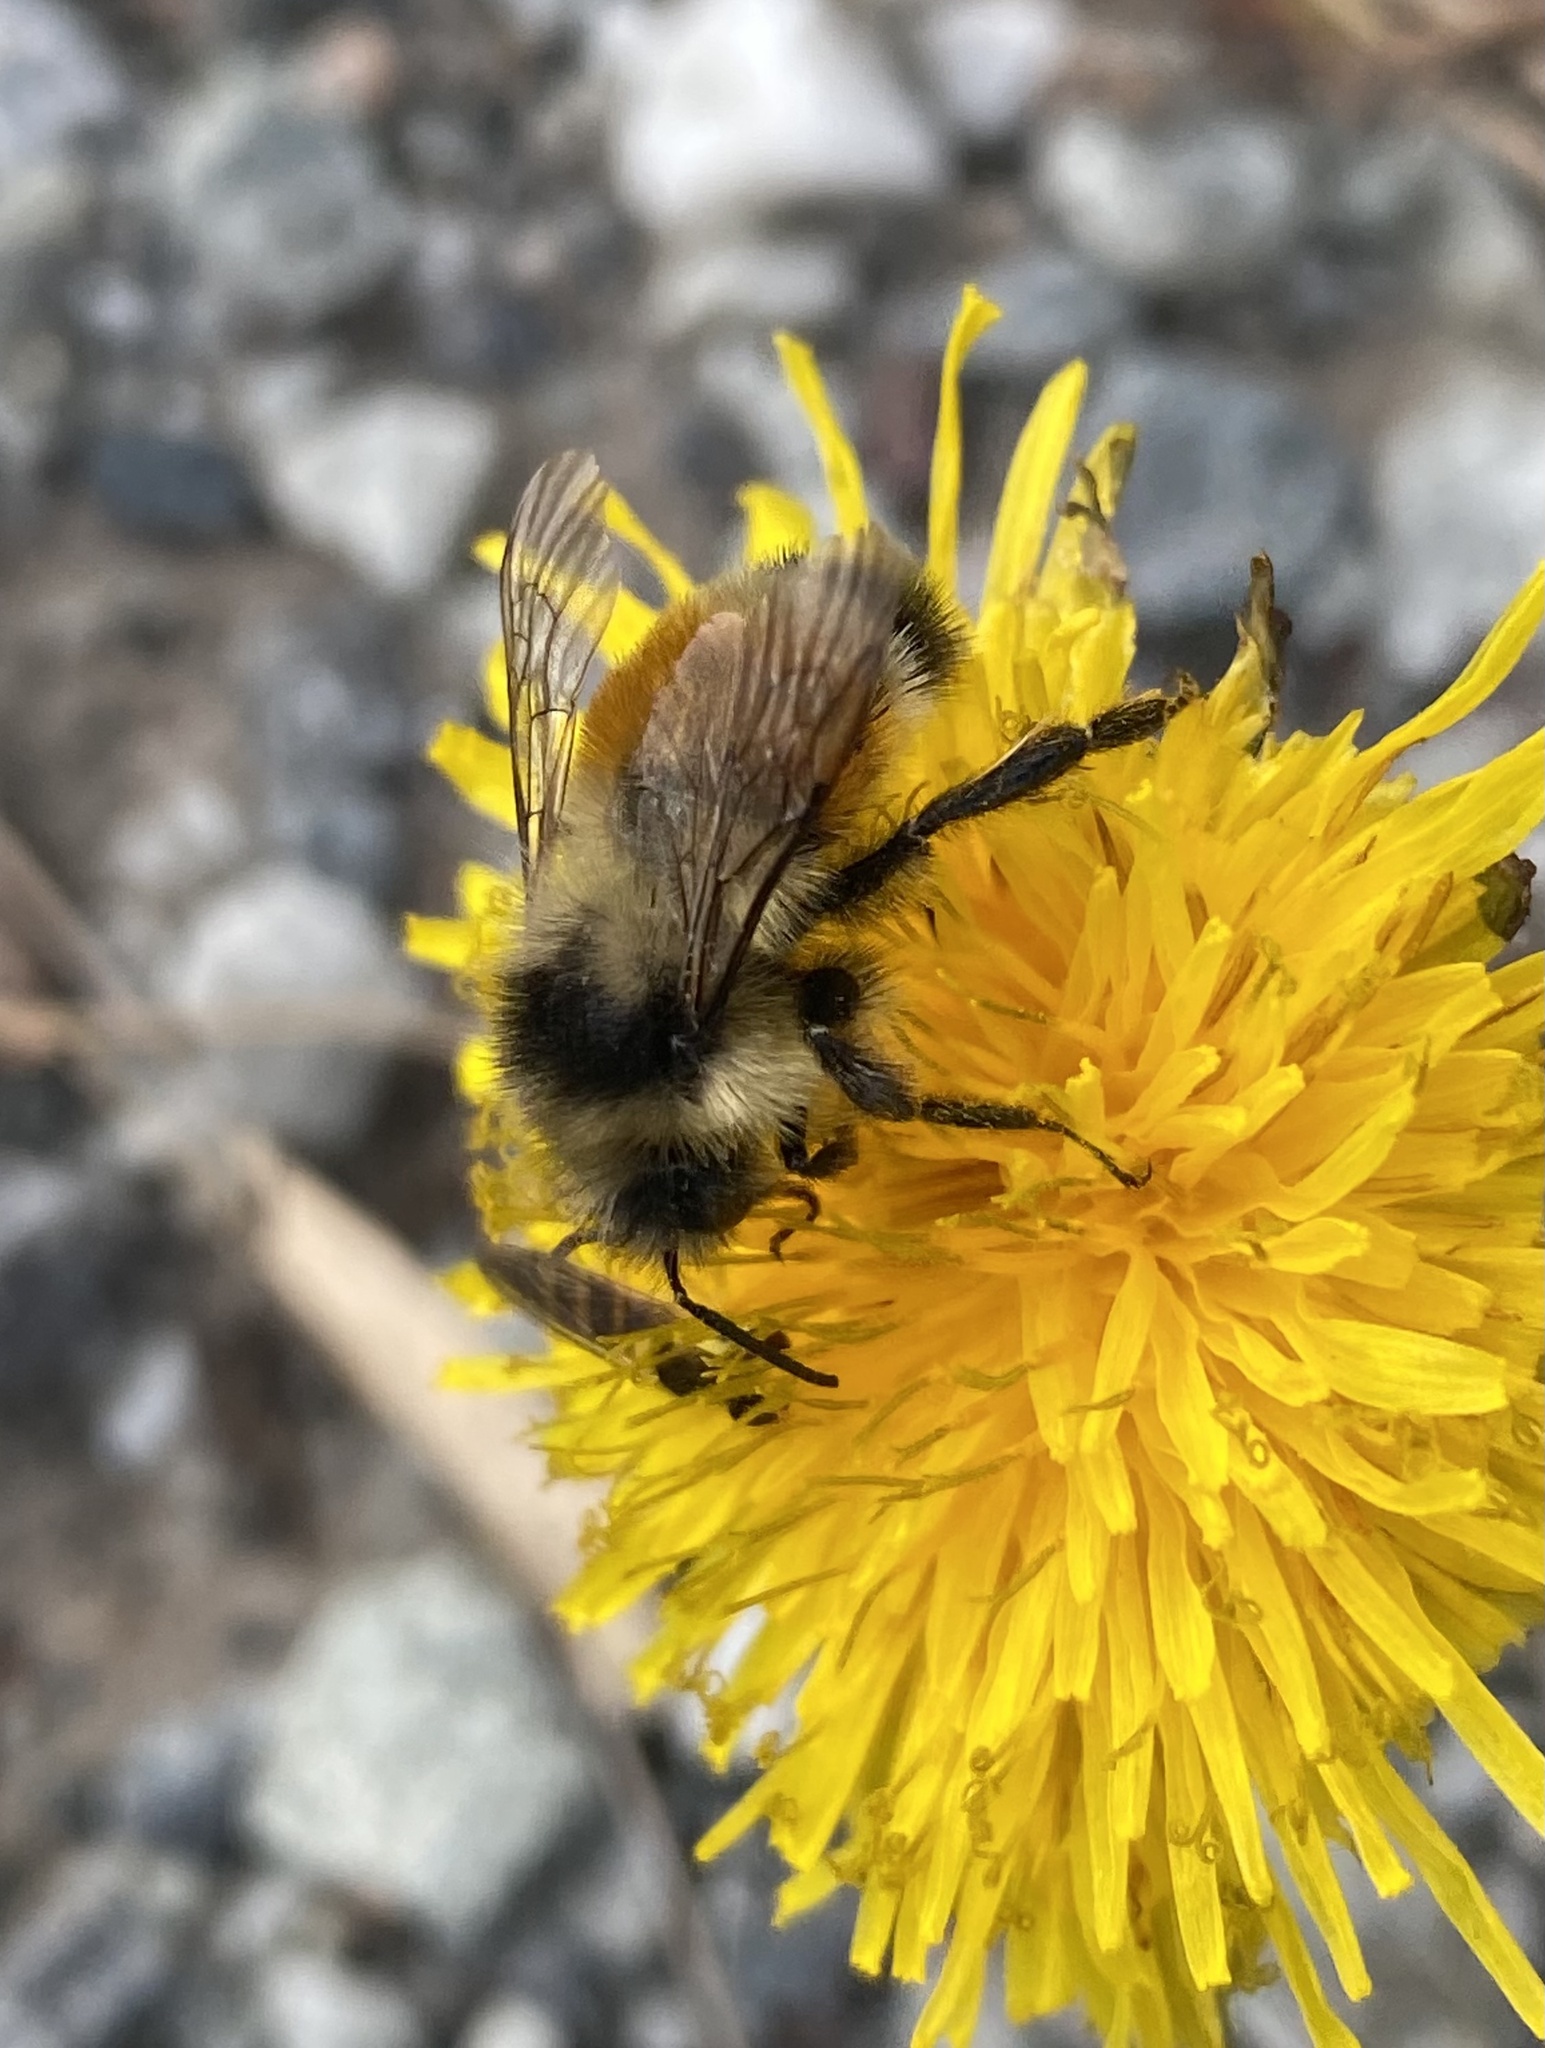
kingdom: Animalia
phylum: Arthropoda
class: Insecta
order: Hymenoptera
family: Apidae
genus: Bombus
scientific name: Bombus ternarius
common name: Tri-colored bumble bee
